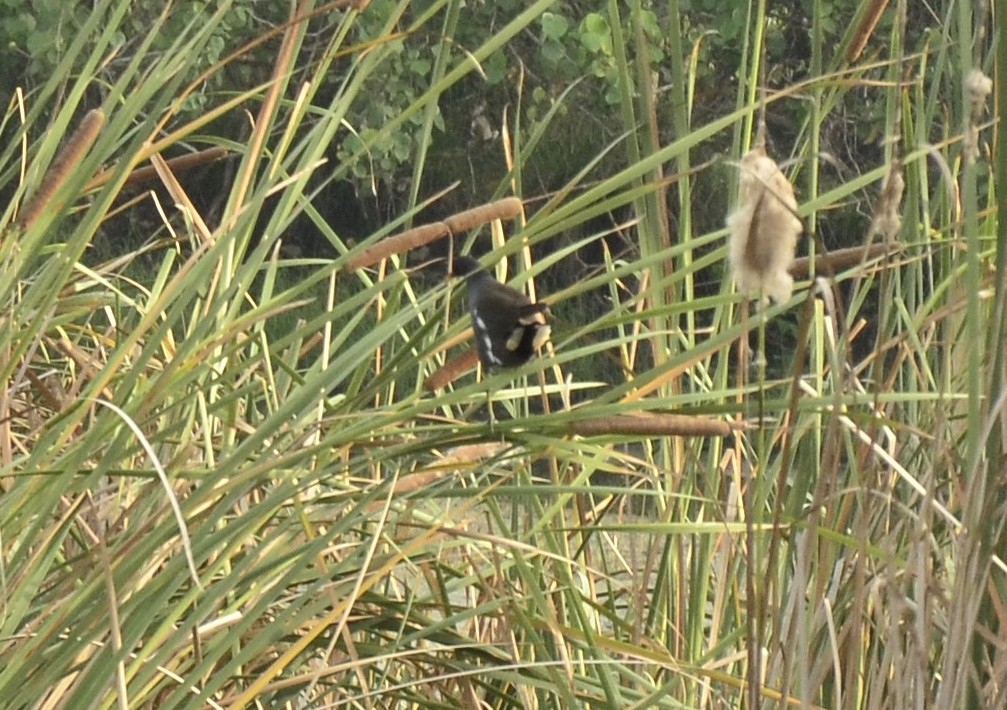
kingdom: Animalia
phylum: Chordata
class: Aves
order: Gruiformes
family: Rallidae
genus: Gallinula
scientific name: Gallinula chloropus
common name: Common moorhen
